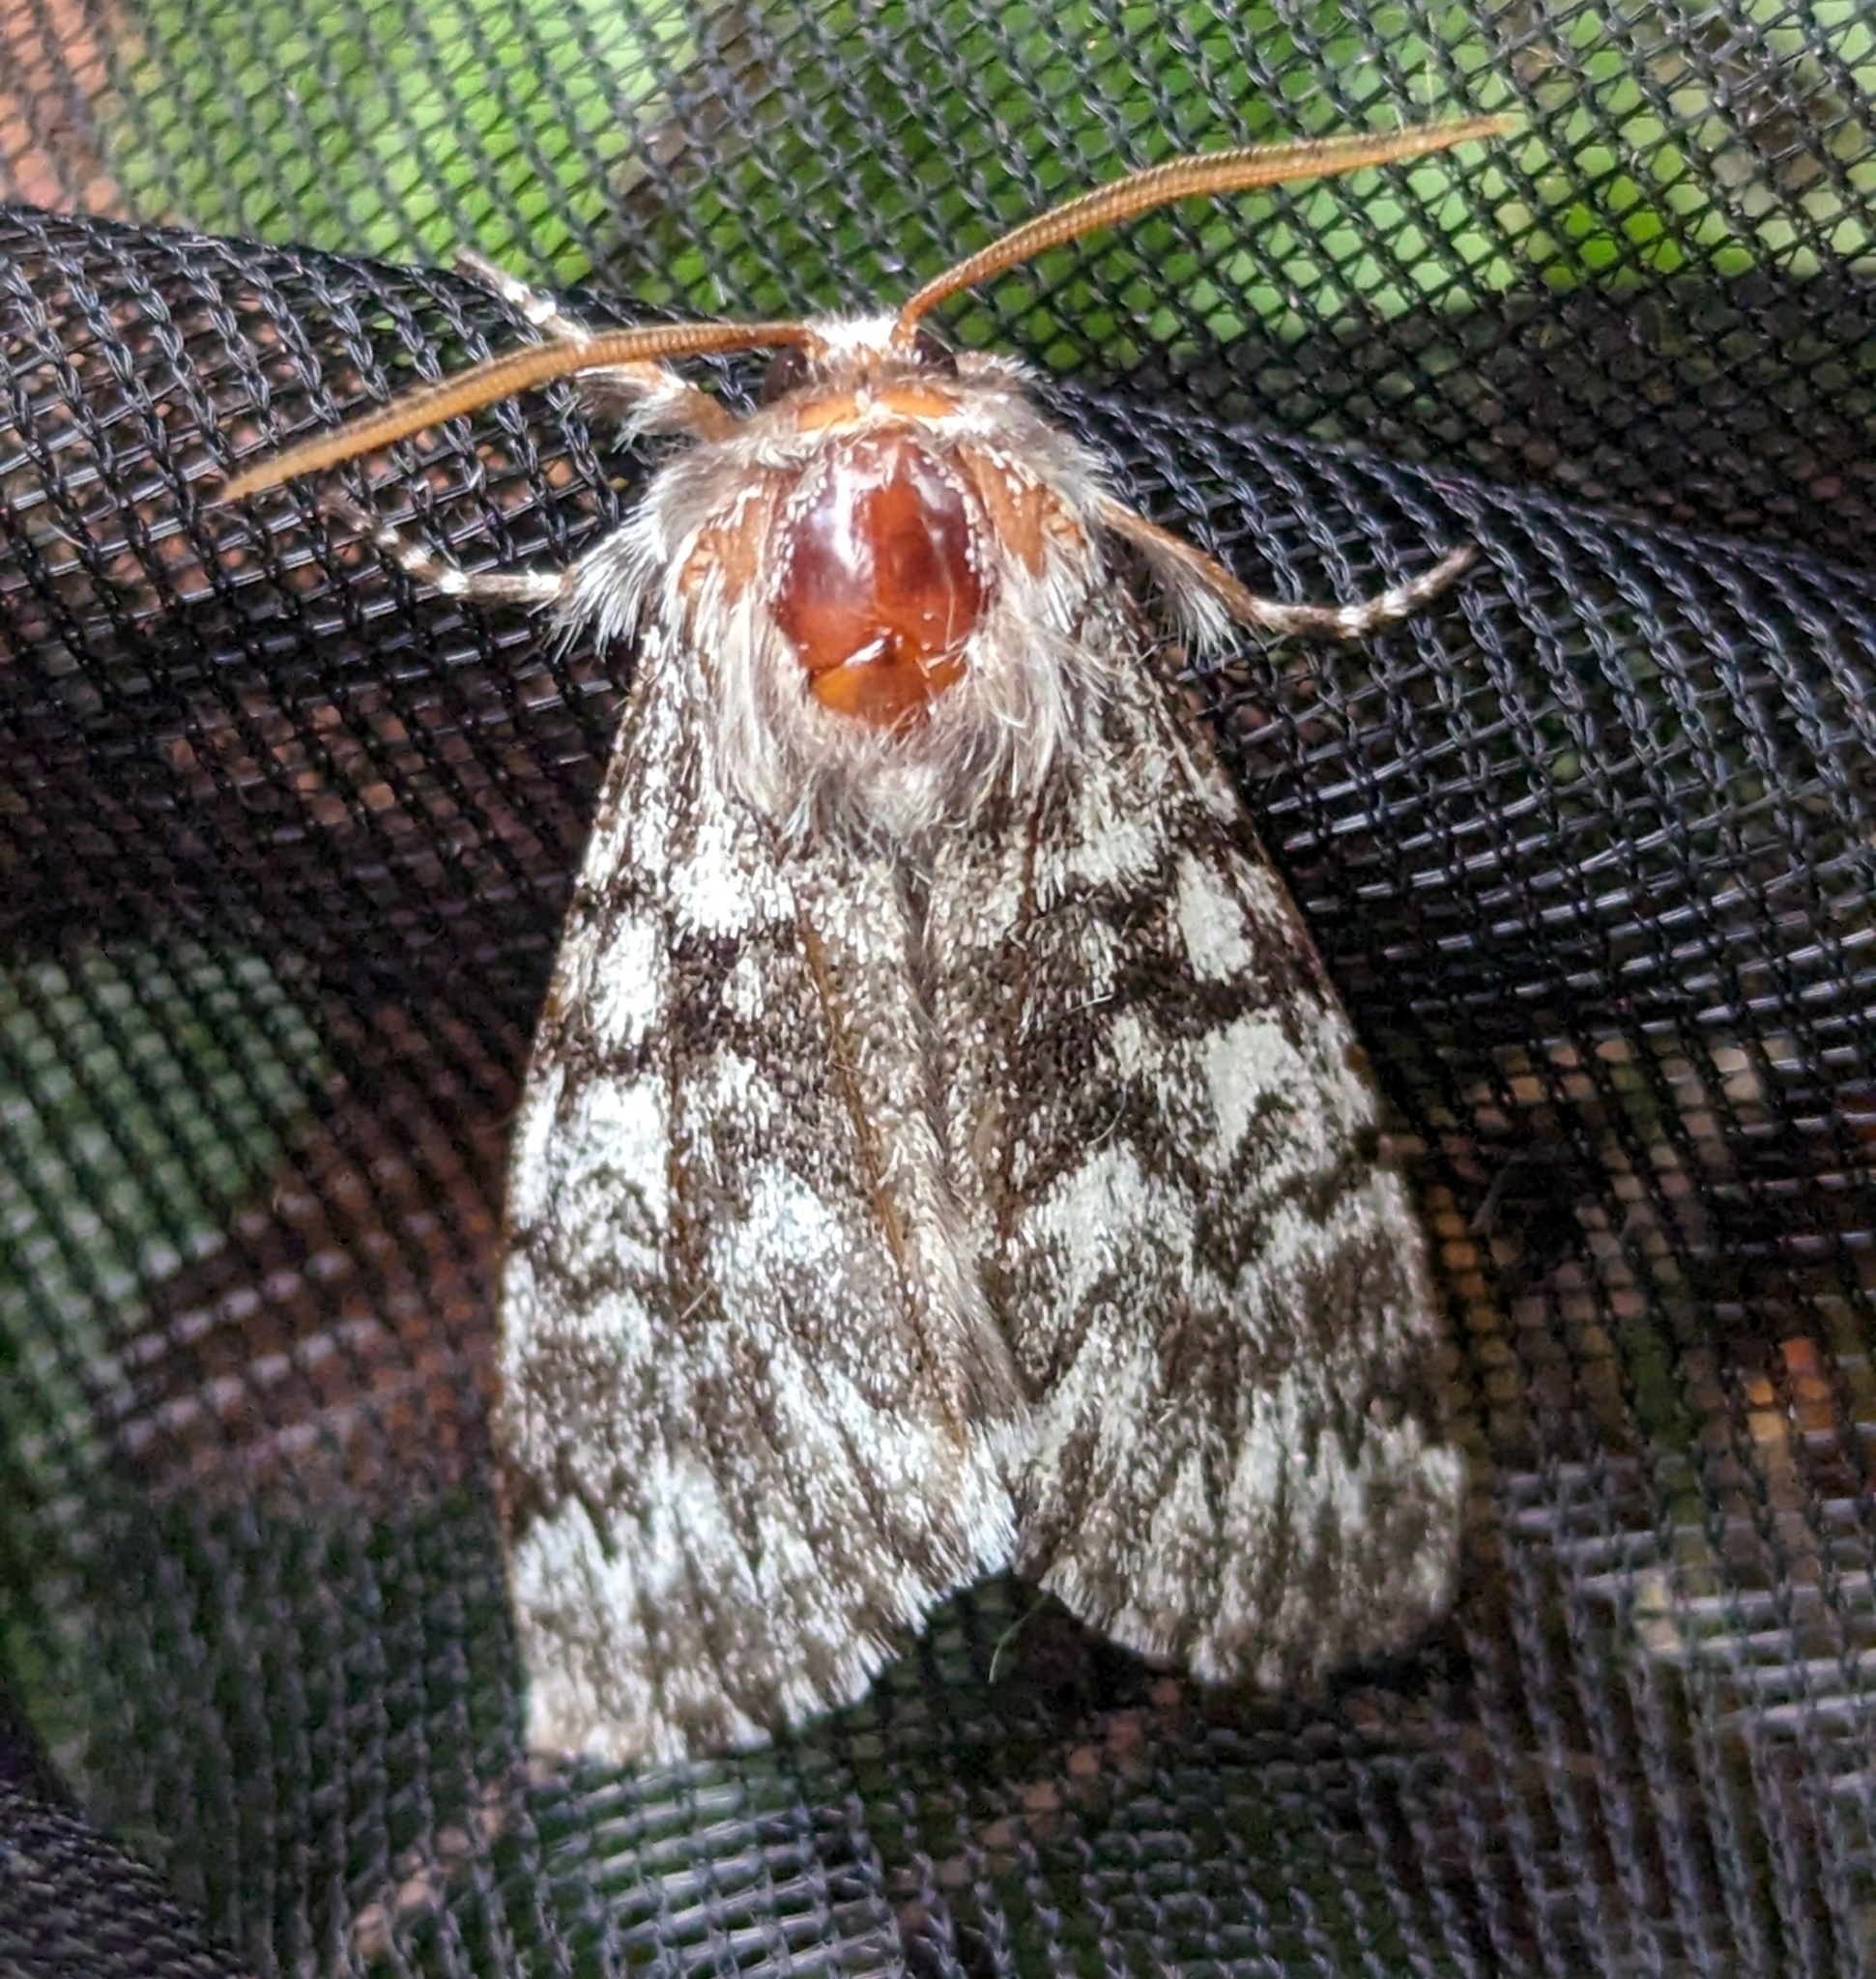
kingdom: Animalia
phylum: Arthropoda
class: Insecta
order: Lepidoptera
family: Noctuidae
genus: Panthea
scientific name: Panthea virginarius
